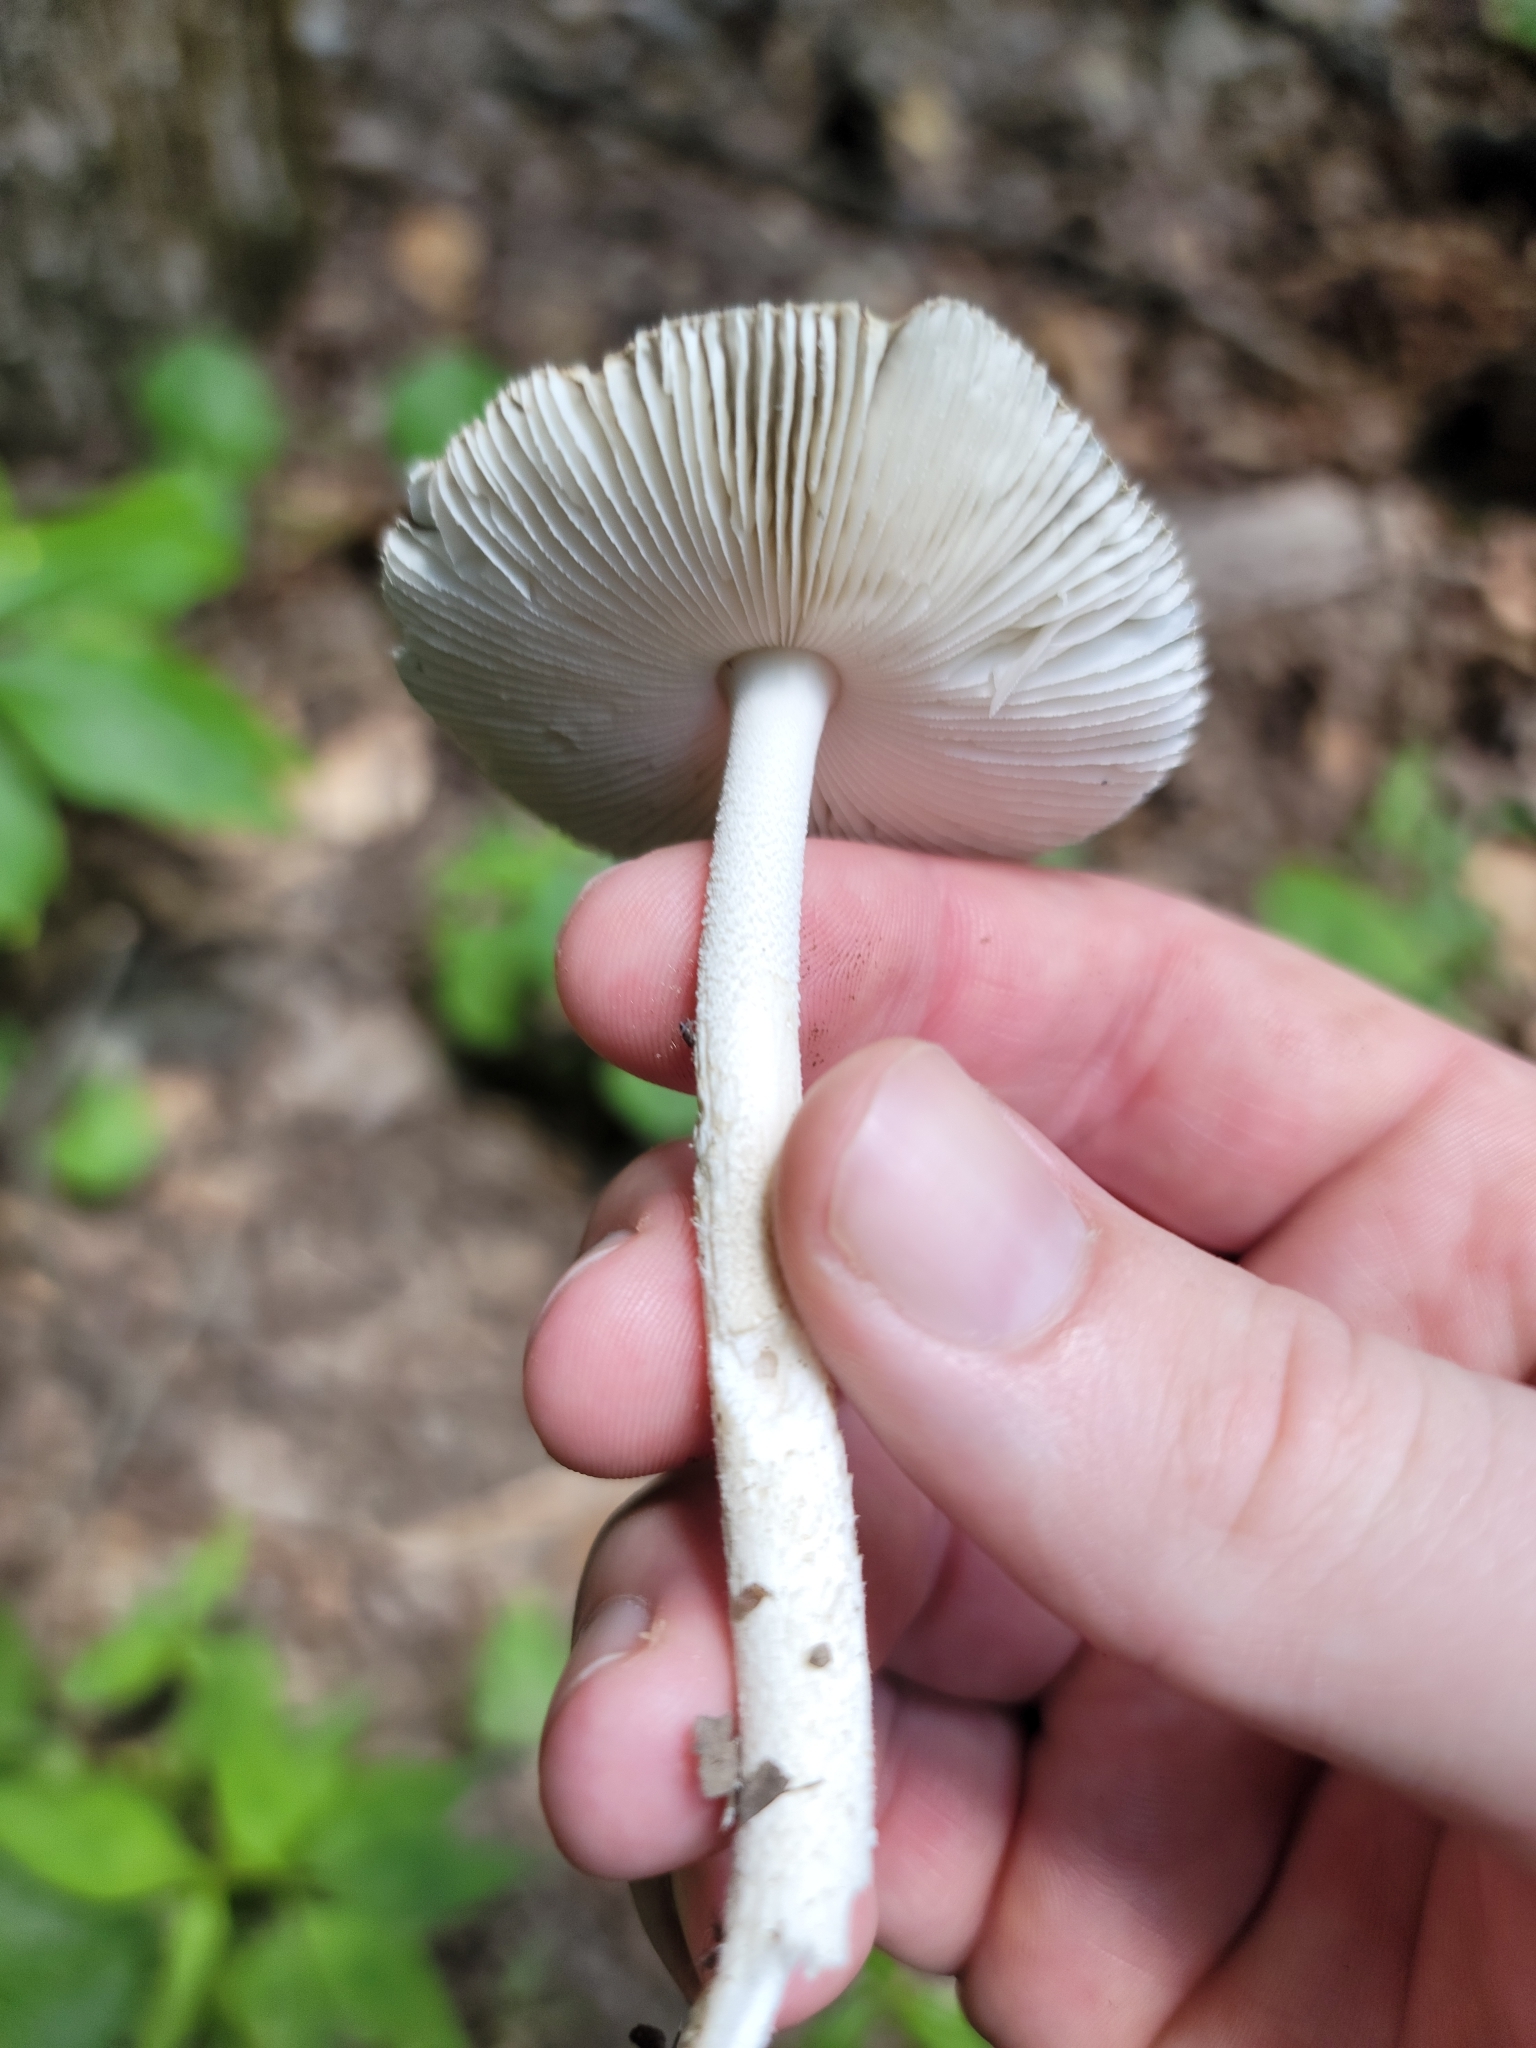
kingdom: Fungi
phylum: Basidiomycota
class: Agaricomycetes
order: Agaricales
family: Amanitaceae
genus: Amanita
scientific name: Amanita vaginata
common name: Grisette
